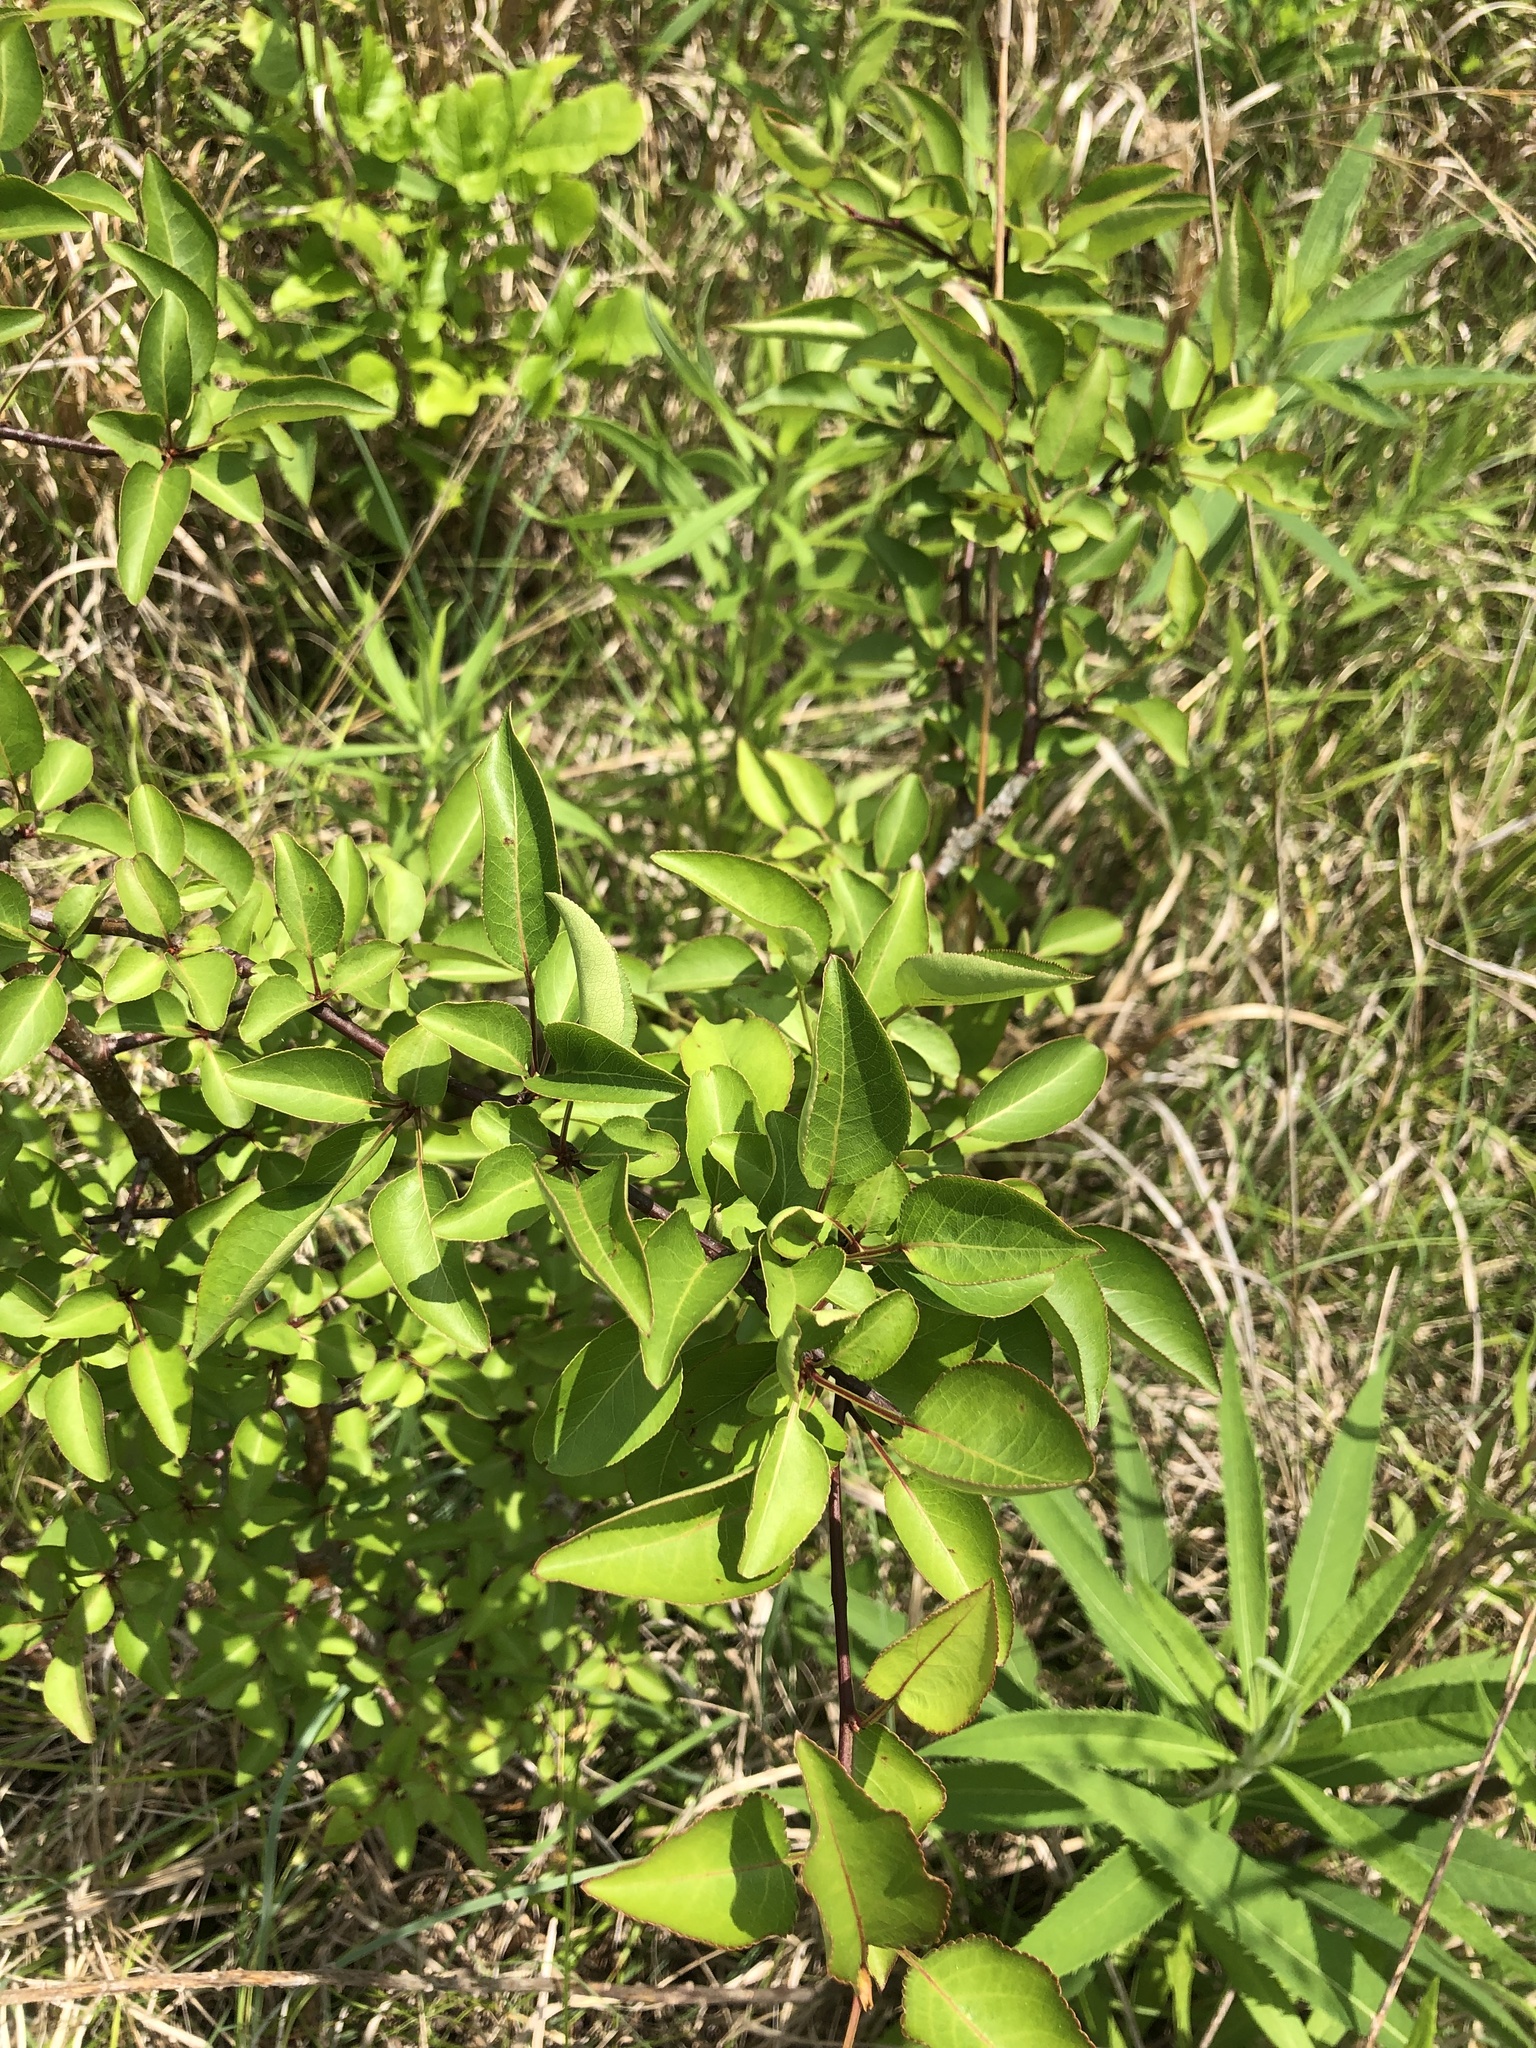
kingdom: Plantae
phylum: Tracheophyta
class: Magnoliopsida
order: Rosales
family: Rosaceae
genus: Pyrus
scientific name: Pyrus calleryana
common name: Callery pear
